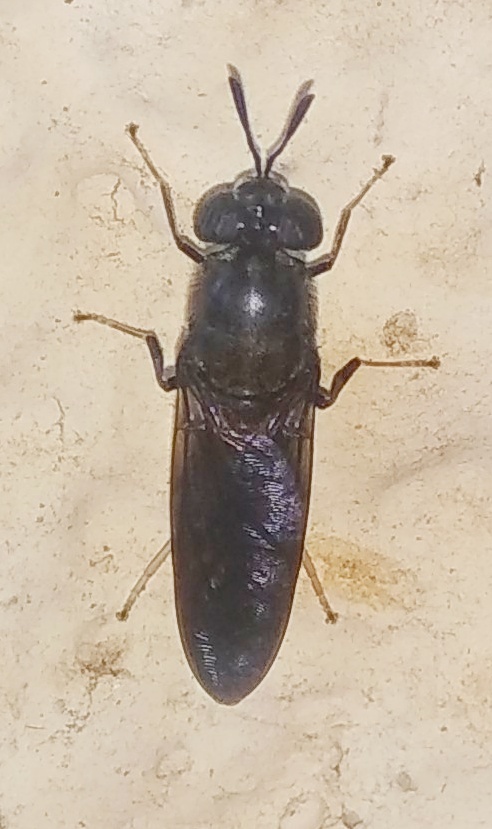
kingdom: Animalia
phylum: Arthropoda
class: Insecta
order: Diptera
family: Stratiomyidae
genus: Hermetia
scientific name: Hermetia illucens
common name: Black soldier fly
